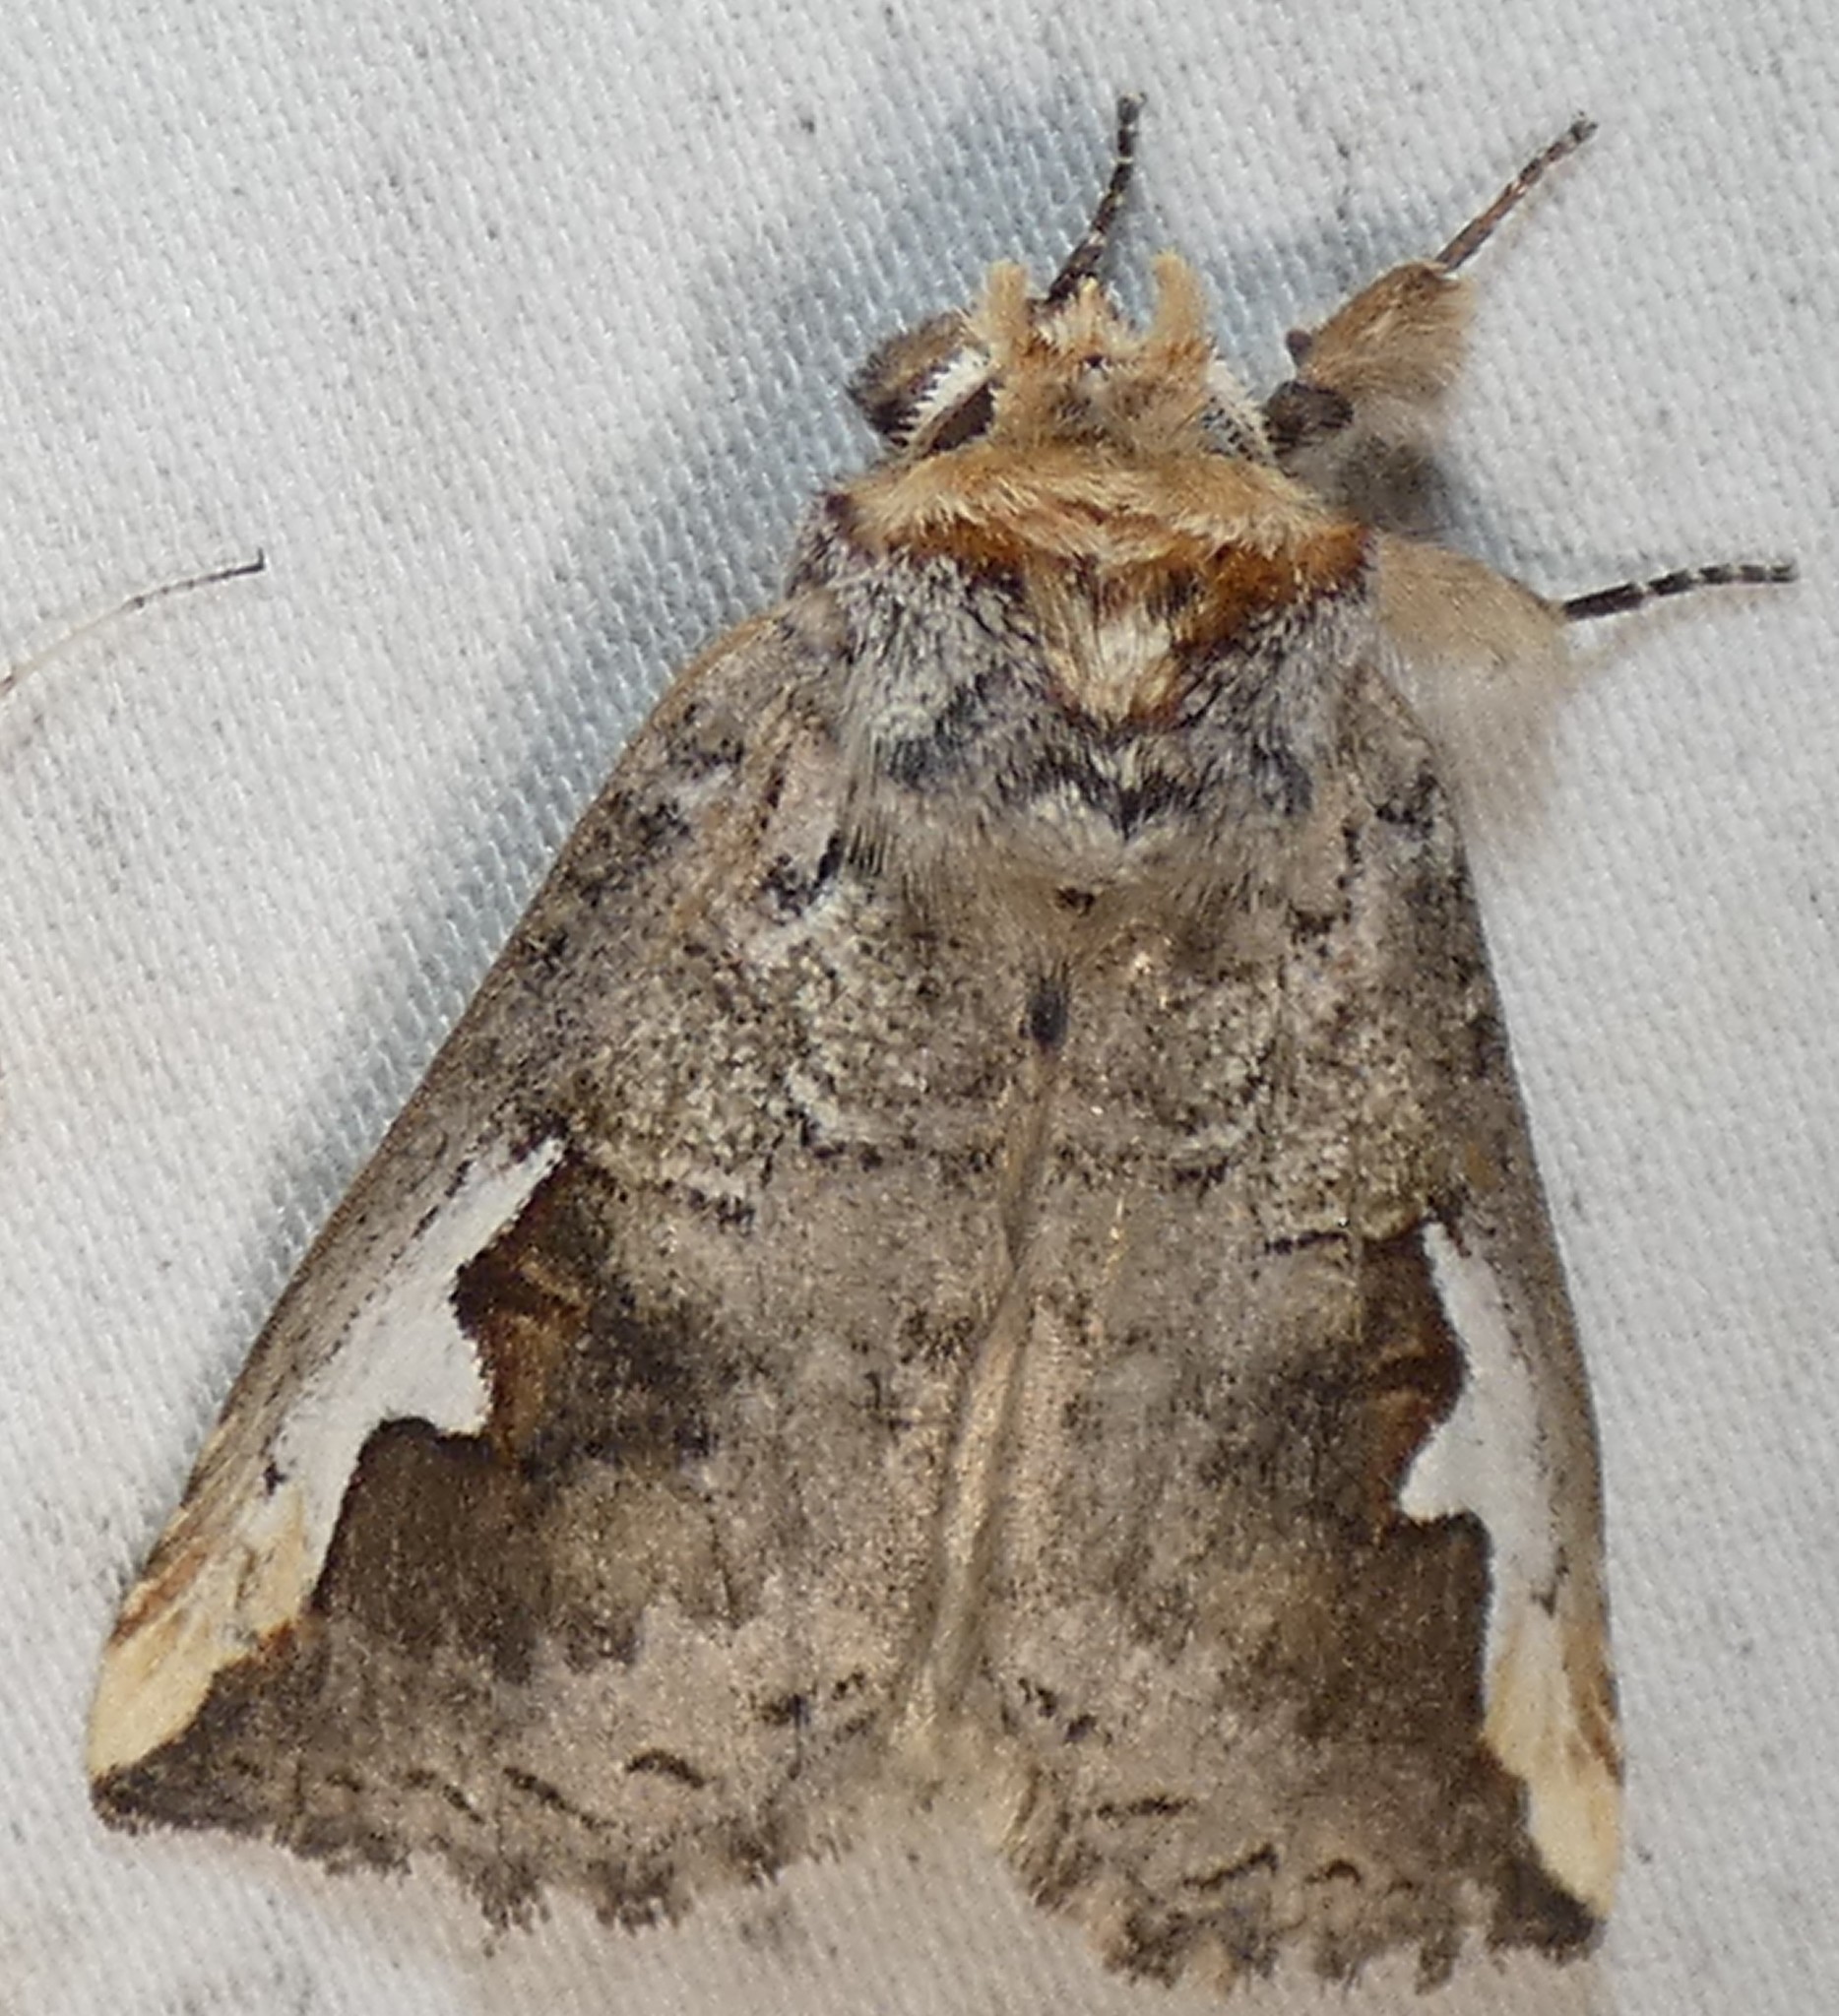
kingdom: Animalia
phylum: Arthropoda
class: Insecta
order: Lepidoptera
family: Notodontidae
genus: Symmerista
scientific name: Symmerista albifrons
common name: White-headed prominent
